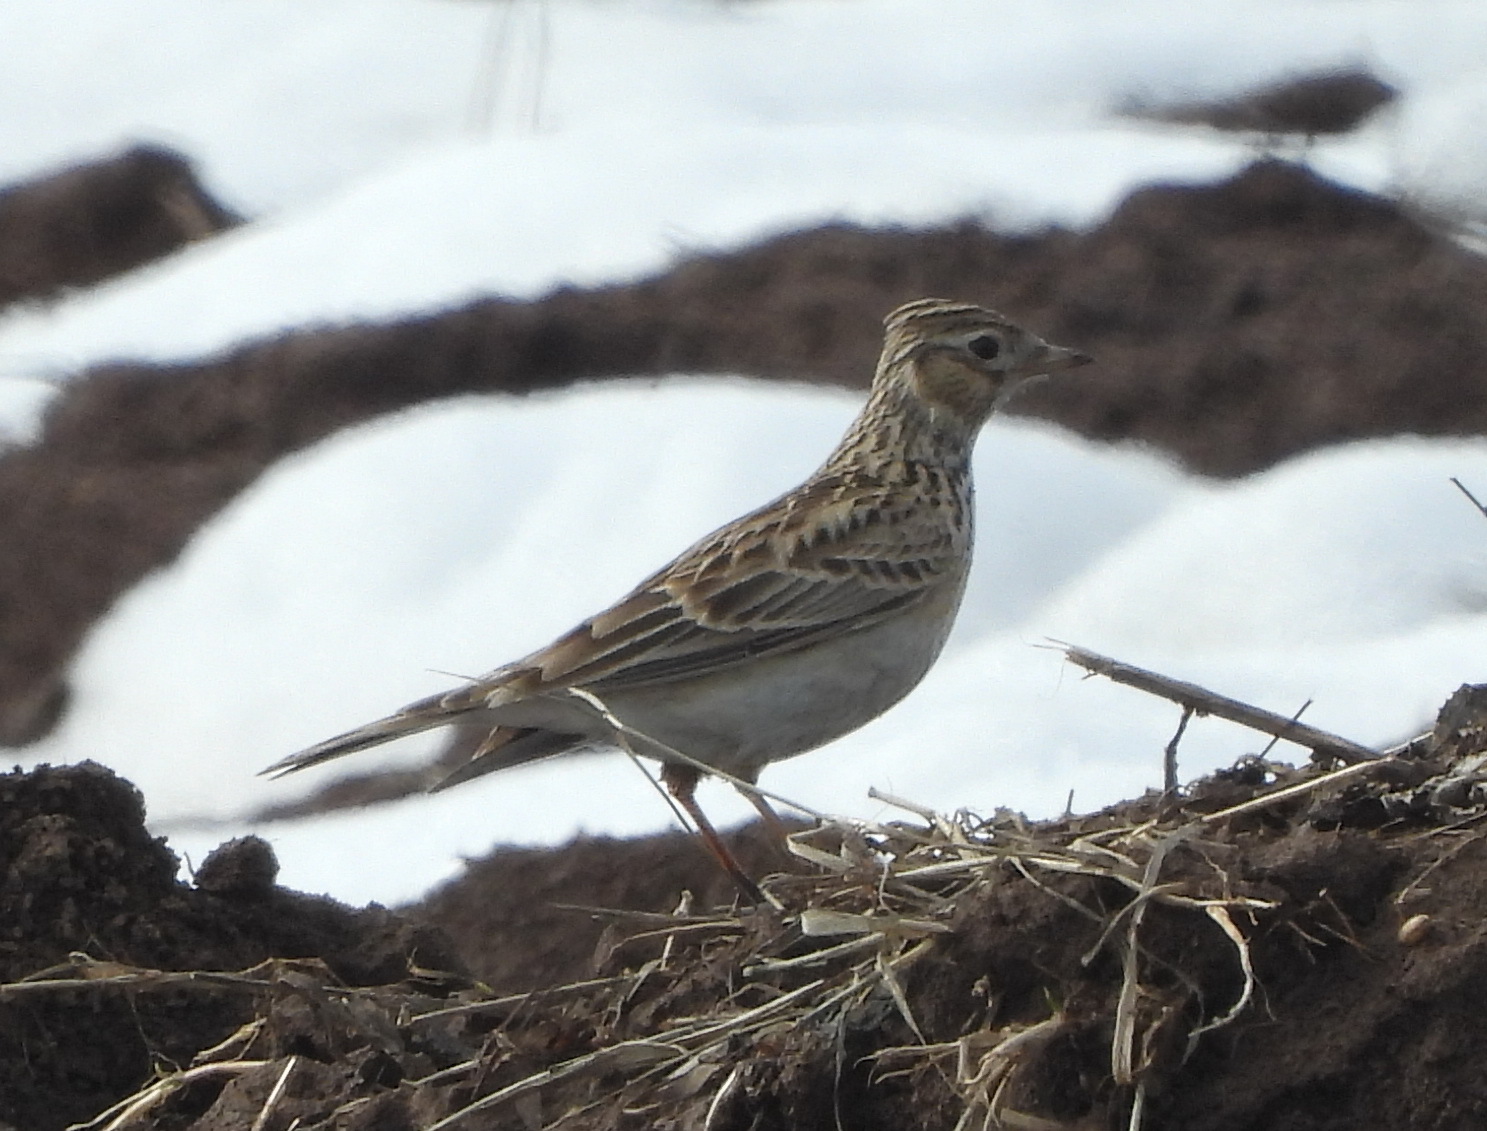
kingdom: Animalia
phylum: Chordata
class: Aves
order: Passeriformes
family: Alaudidae
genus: Alauda
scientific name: Alauda arvensis
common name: Eurasian skylark
